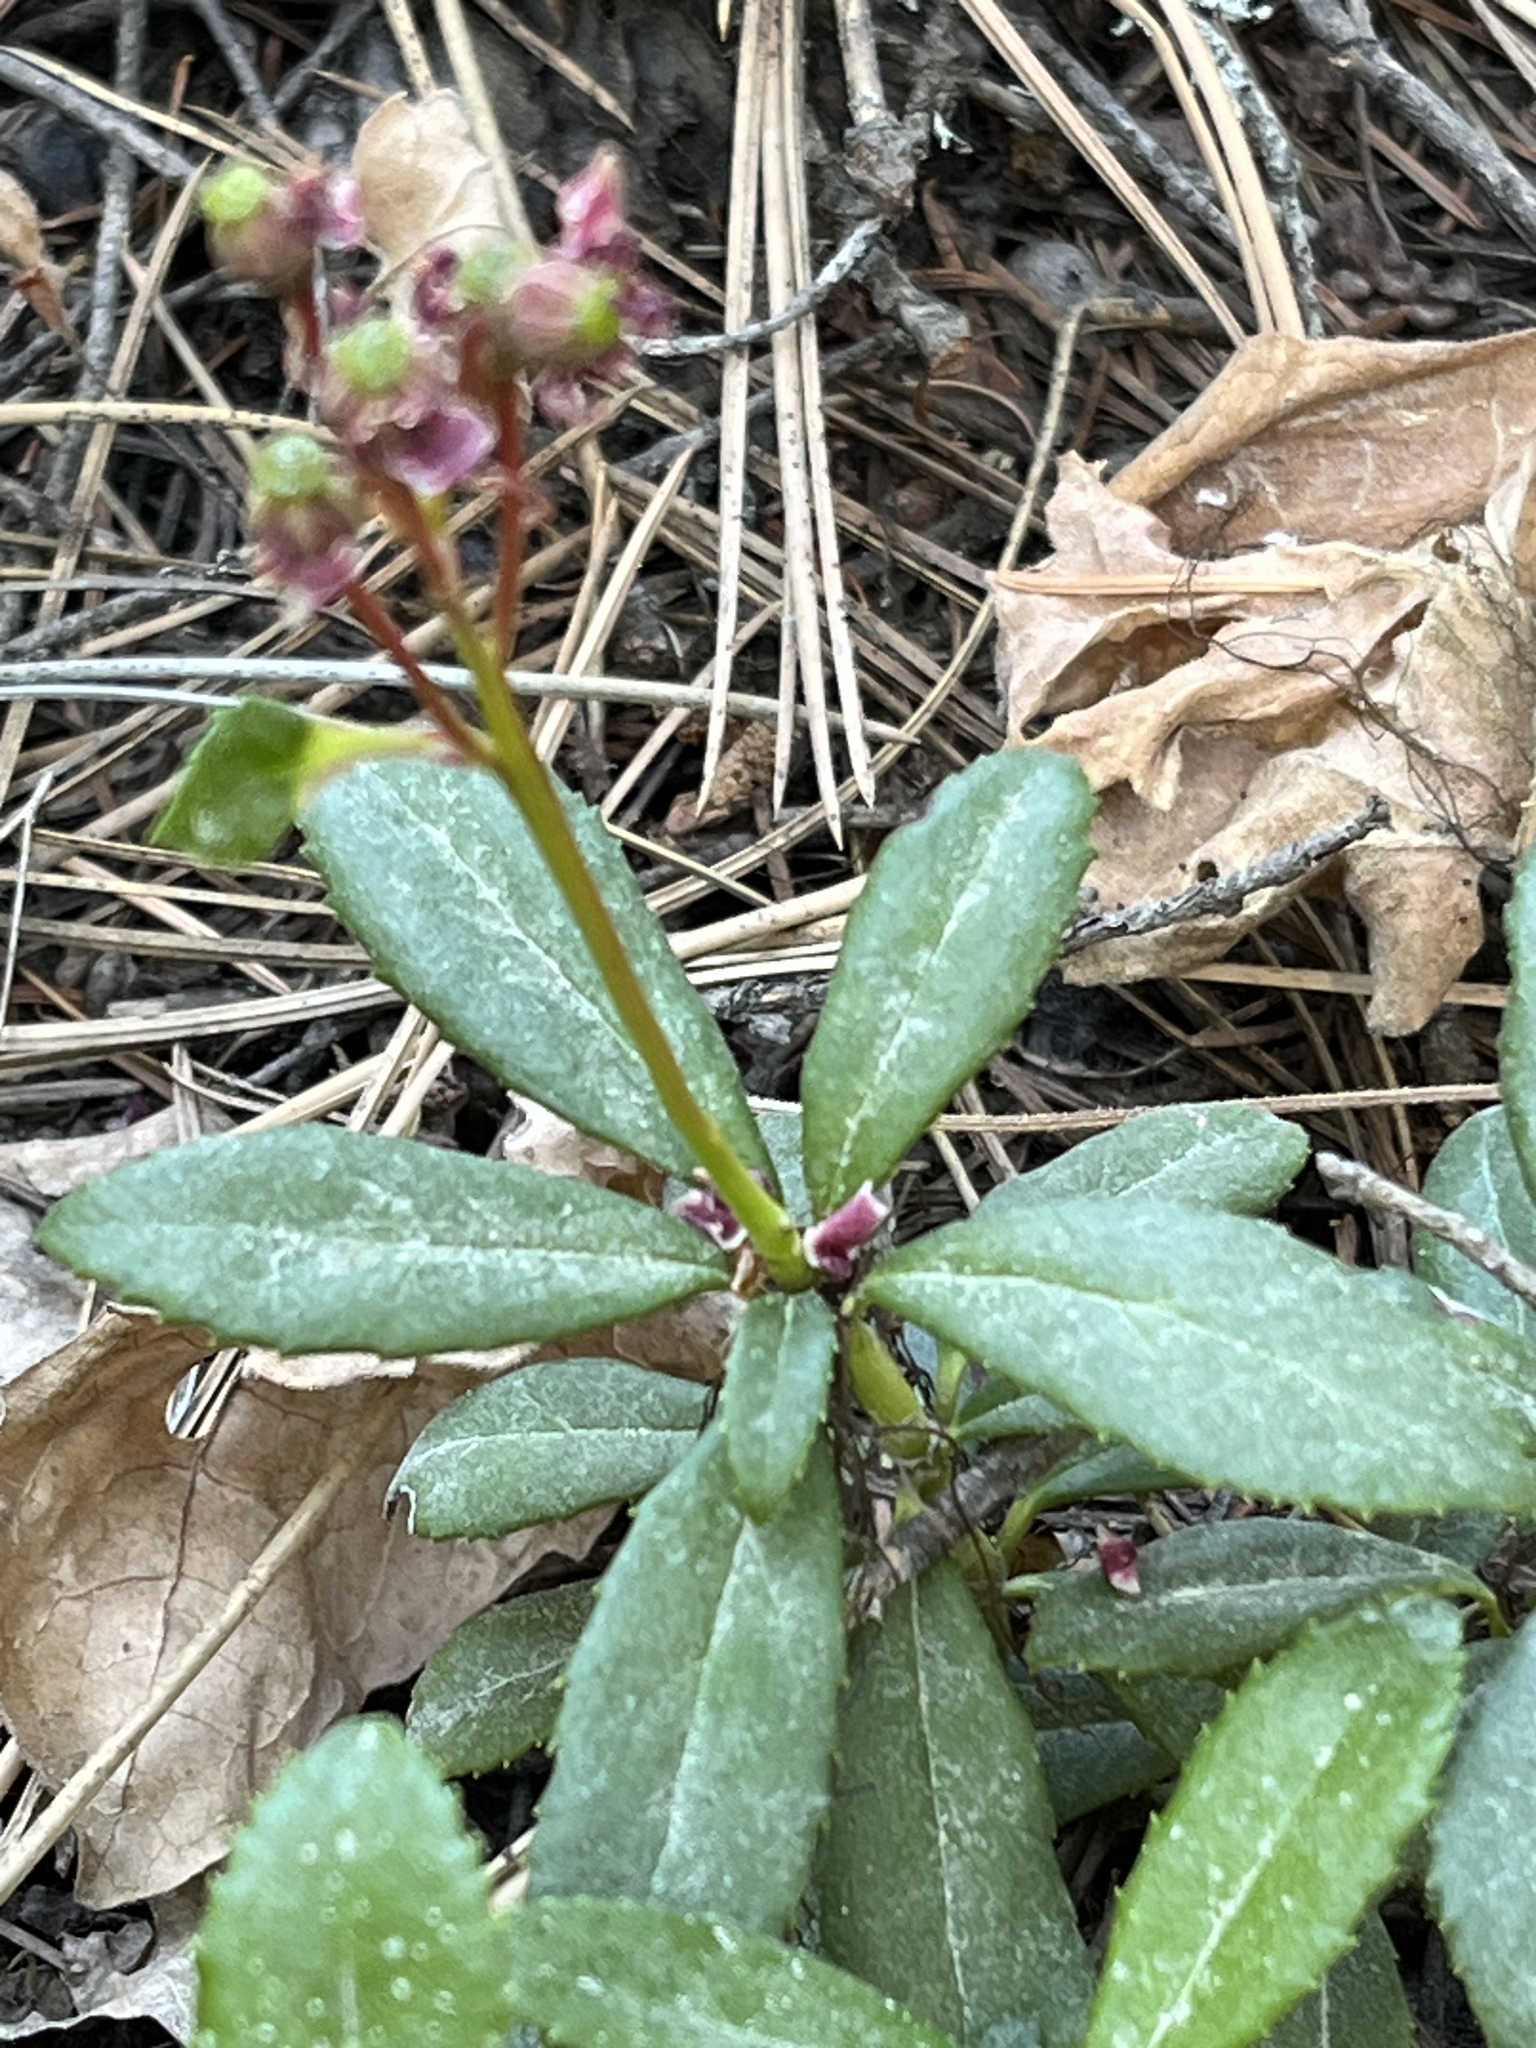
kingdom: Plantae
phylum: Tracheophyta
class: Magnoliopsida
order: Ericales
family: Ericaceae
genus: Chimaphila
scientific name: Chimaphila umbellata
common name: Pipsissewa
